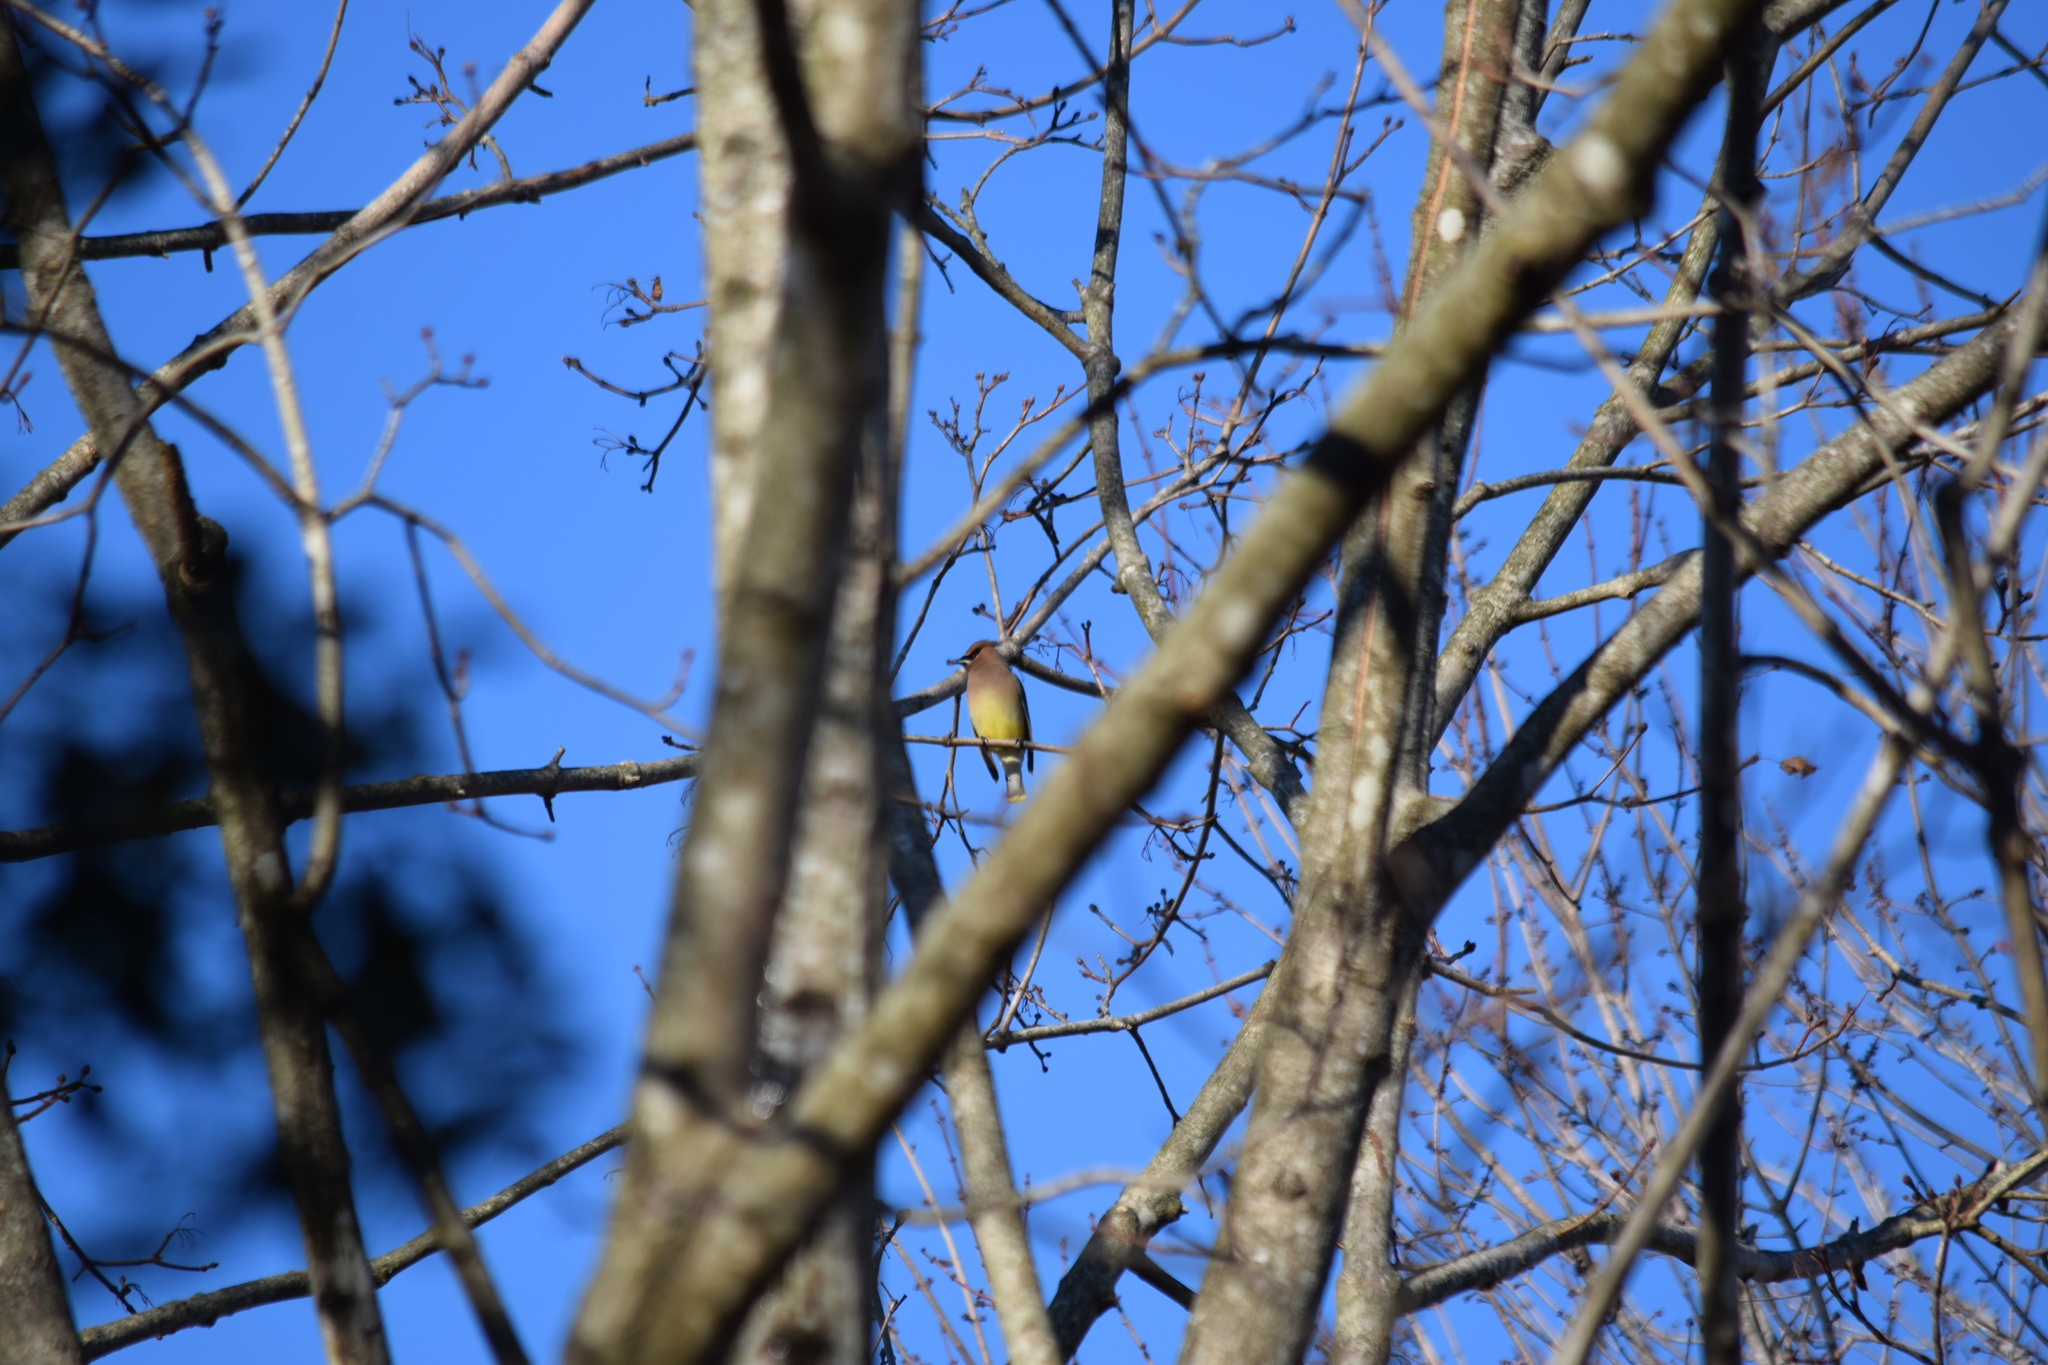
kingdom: Animalia
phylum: Chordata
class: Aves
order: Passeriformes
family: Bombycillidae
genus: Bombycilla
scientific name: Bombycilla cedrorum
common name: Cedar waxwing
